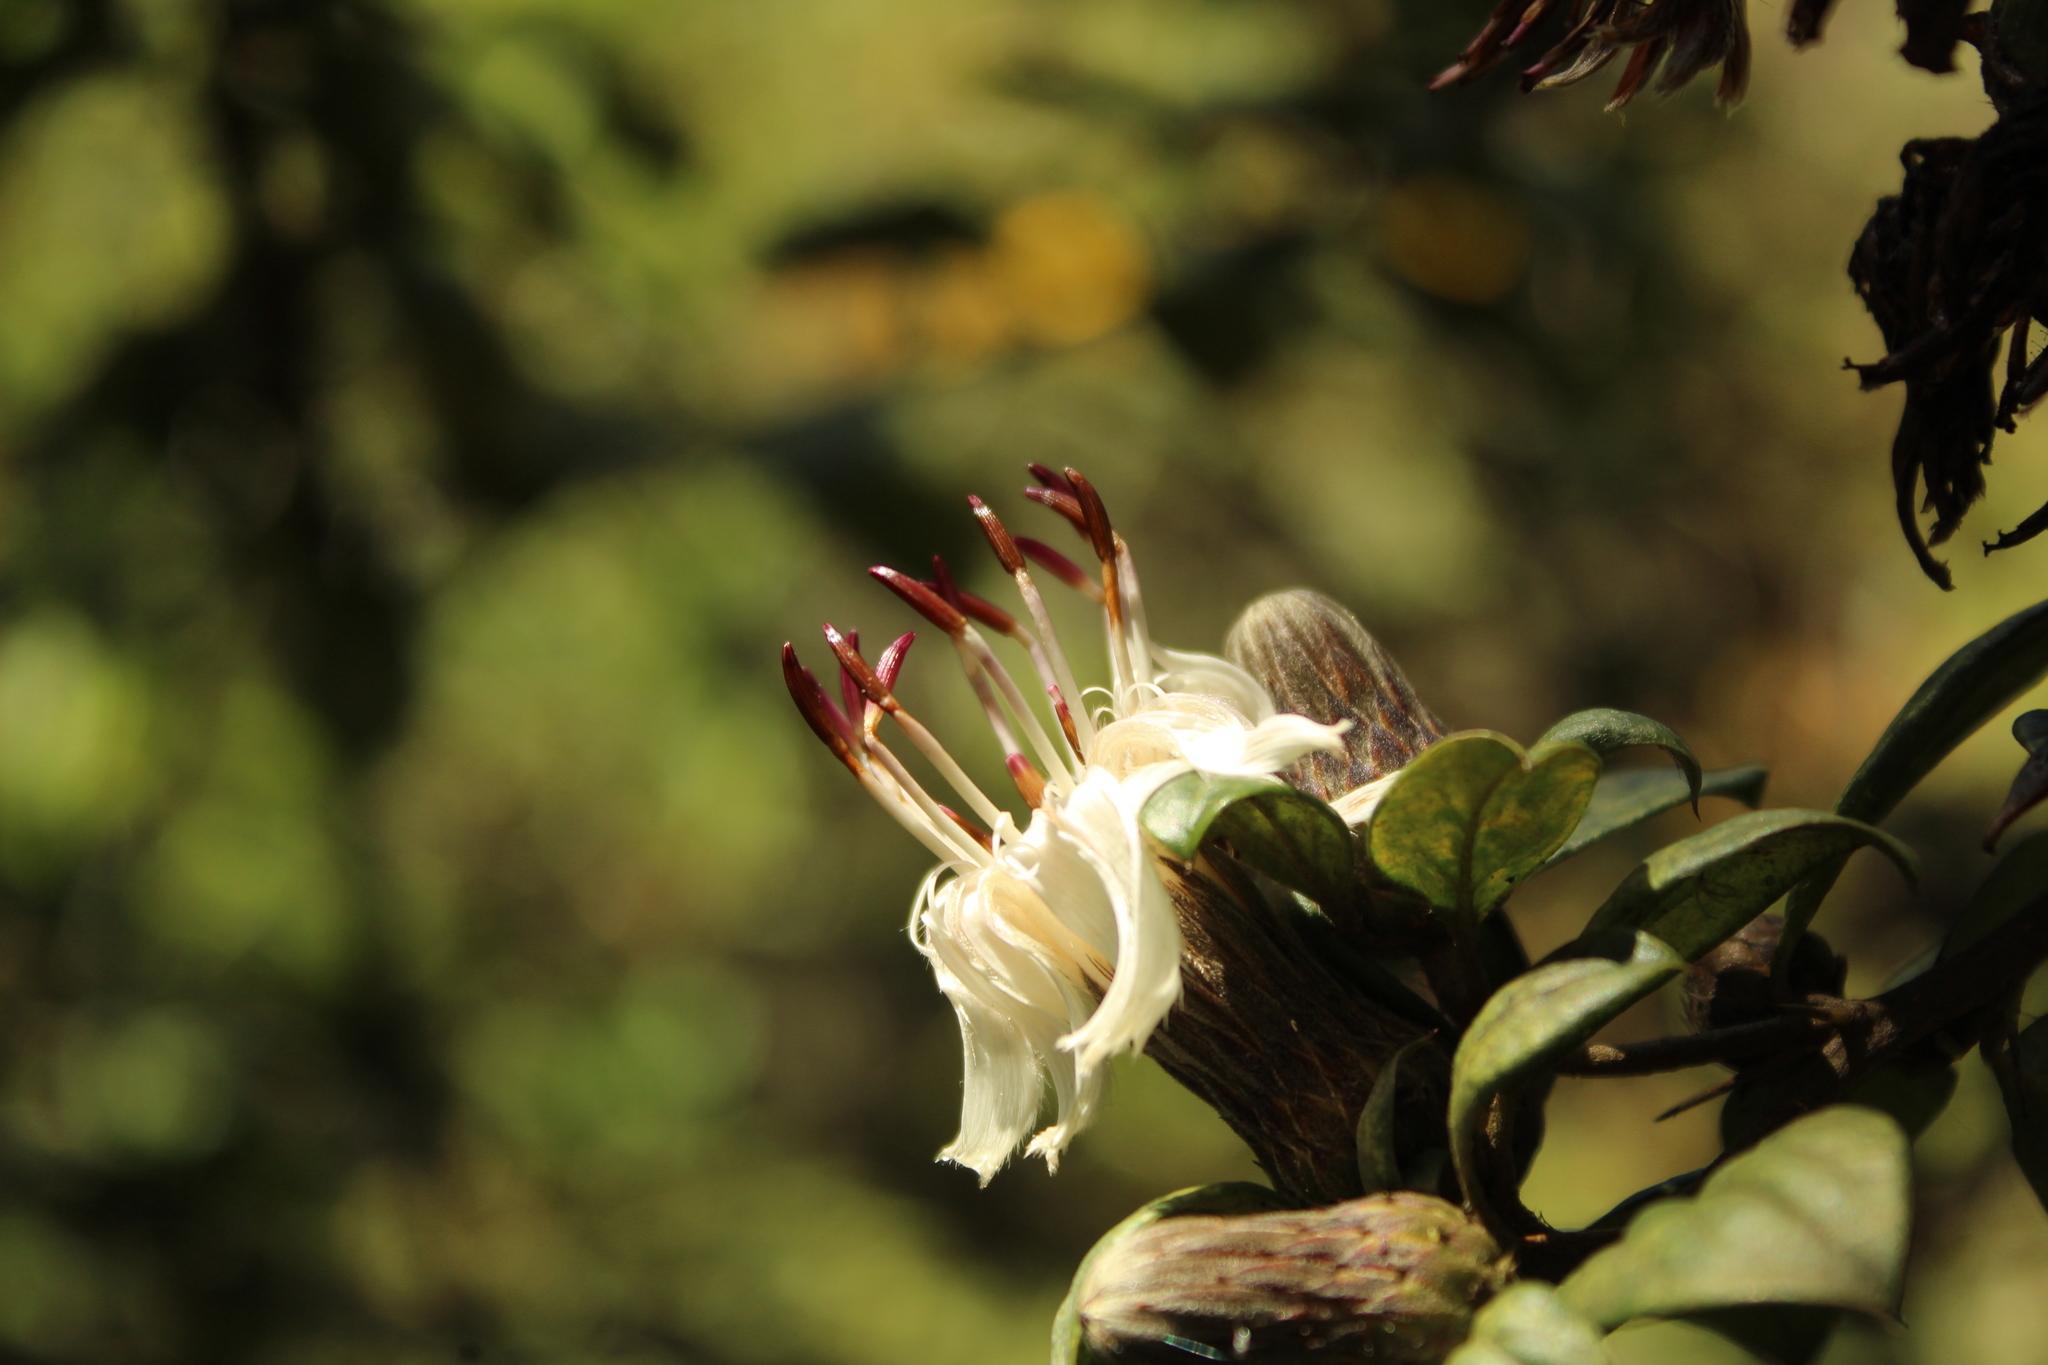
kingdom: Plantae
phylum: Tracheophyta
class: Magnoliopsida
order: Asterales
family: Asteraceae
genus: Barnadesia
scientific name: Barnadesia spinosa
